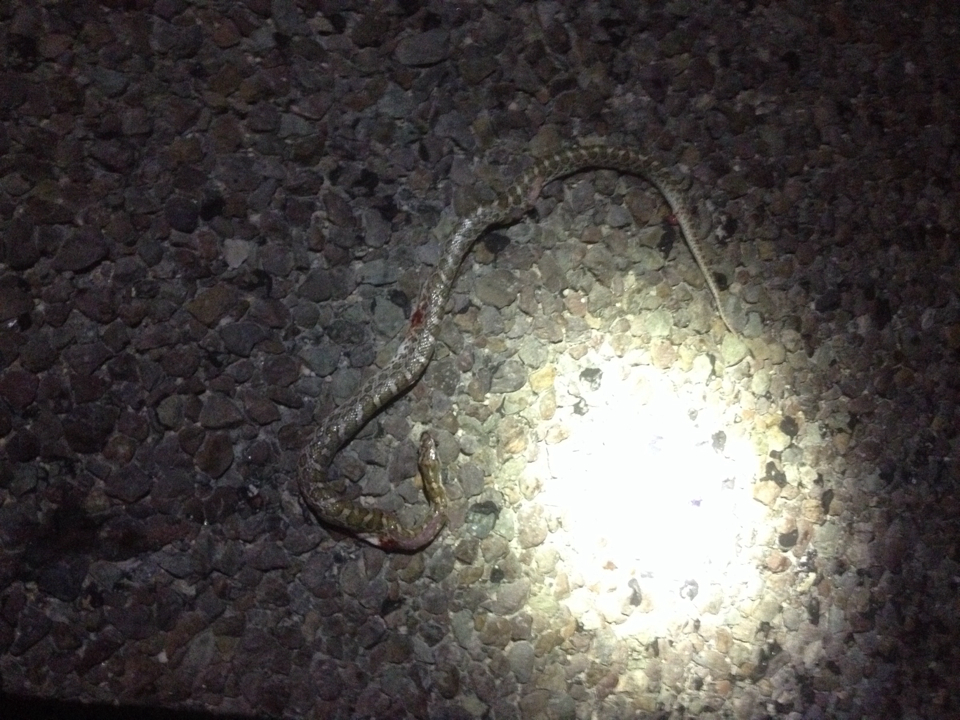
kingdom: Animalia
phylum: Chordata
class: Squamata
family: Colubridae
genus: Arizona
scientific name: Arizona elegans
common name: Glossy snake
